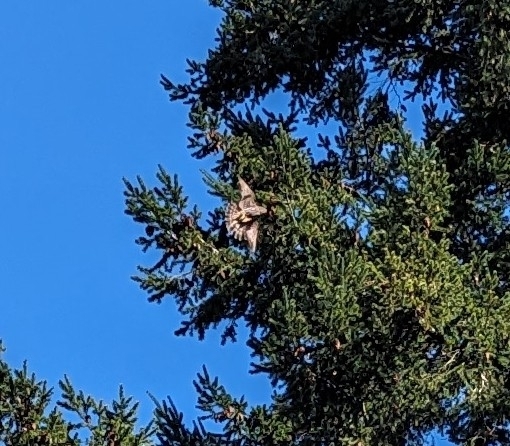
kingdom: Animalia
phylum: Chordata
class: Aves
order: Falconiformes
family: Falconidae
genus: Falco
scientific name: Falco columbarius
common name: Merlin
